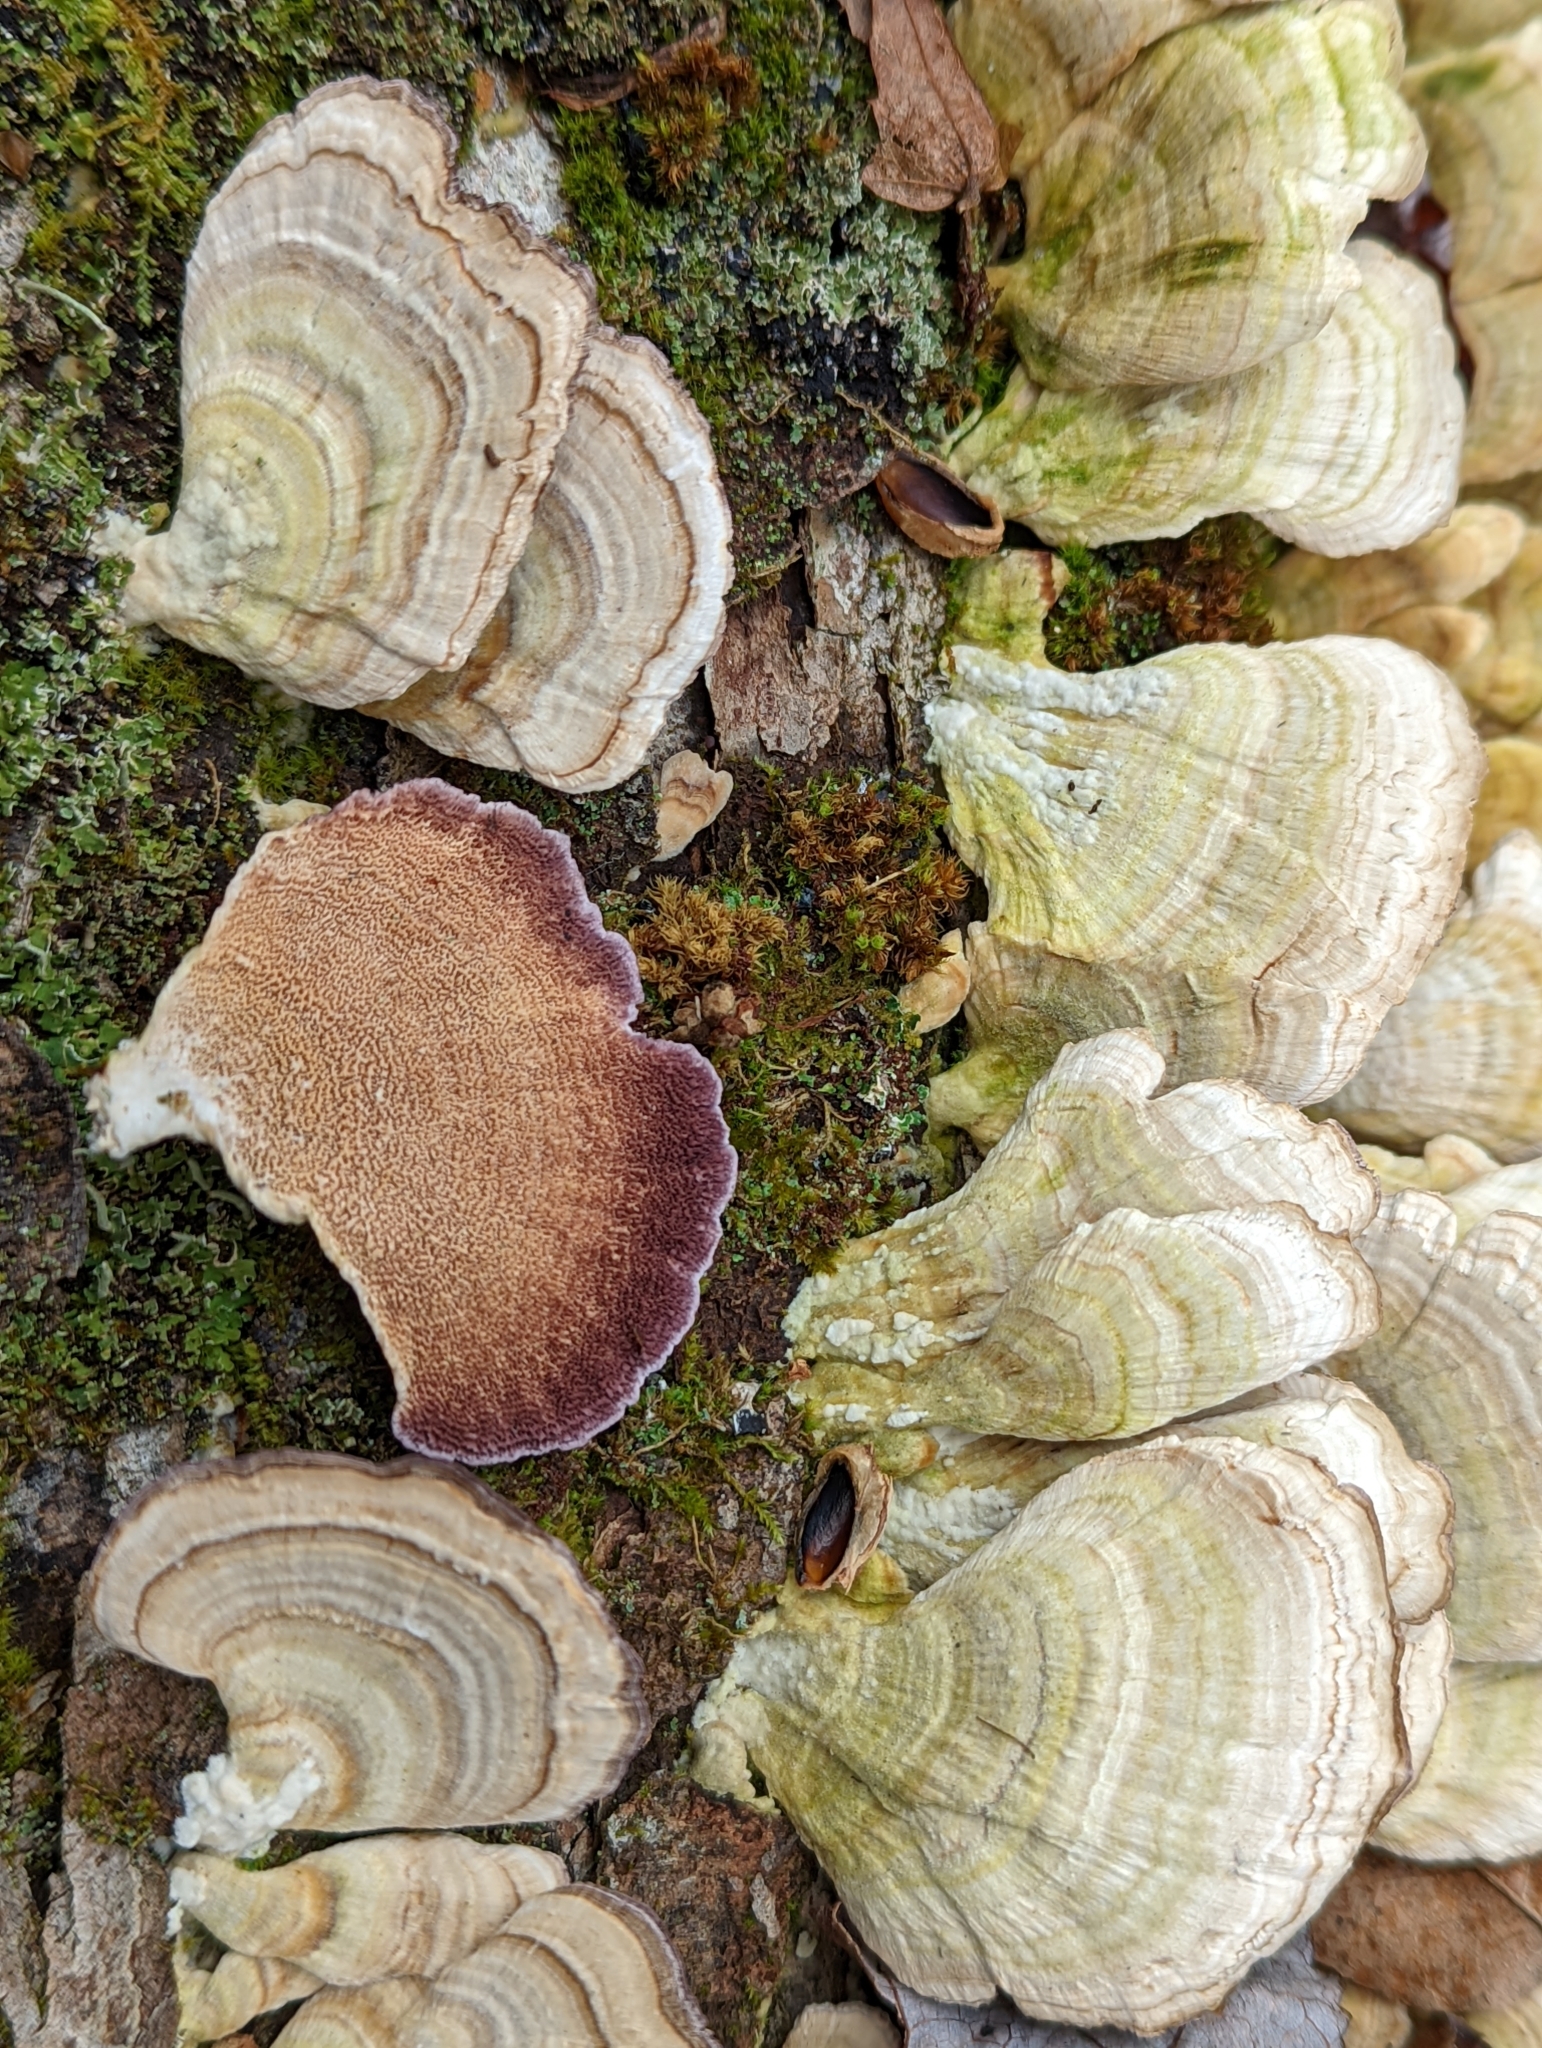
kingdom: Fungi
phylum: Basidiomycota
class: Agaricomycetes
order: Hymenochaetales
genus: Trichaptum
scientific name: Trichaptum biforme
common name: Violet-toothed polypore
